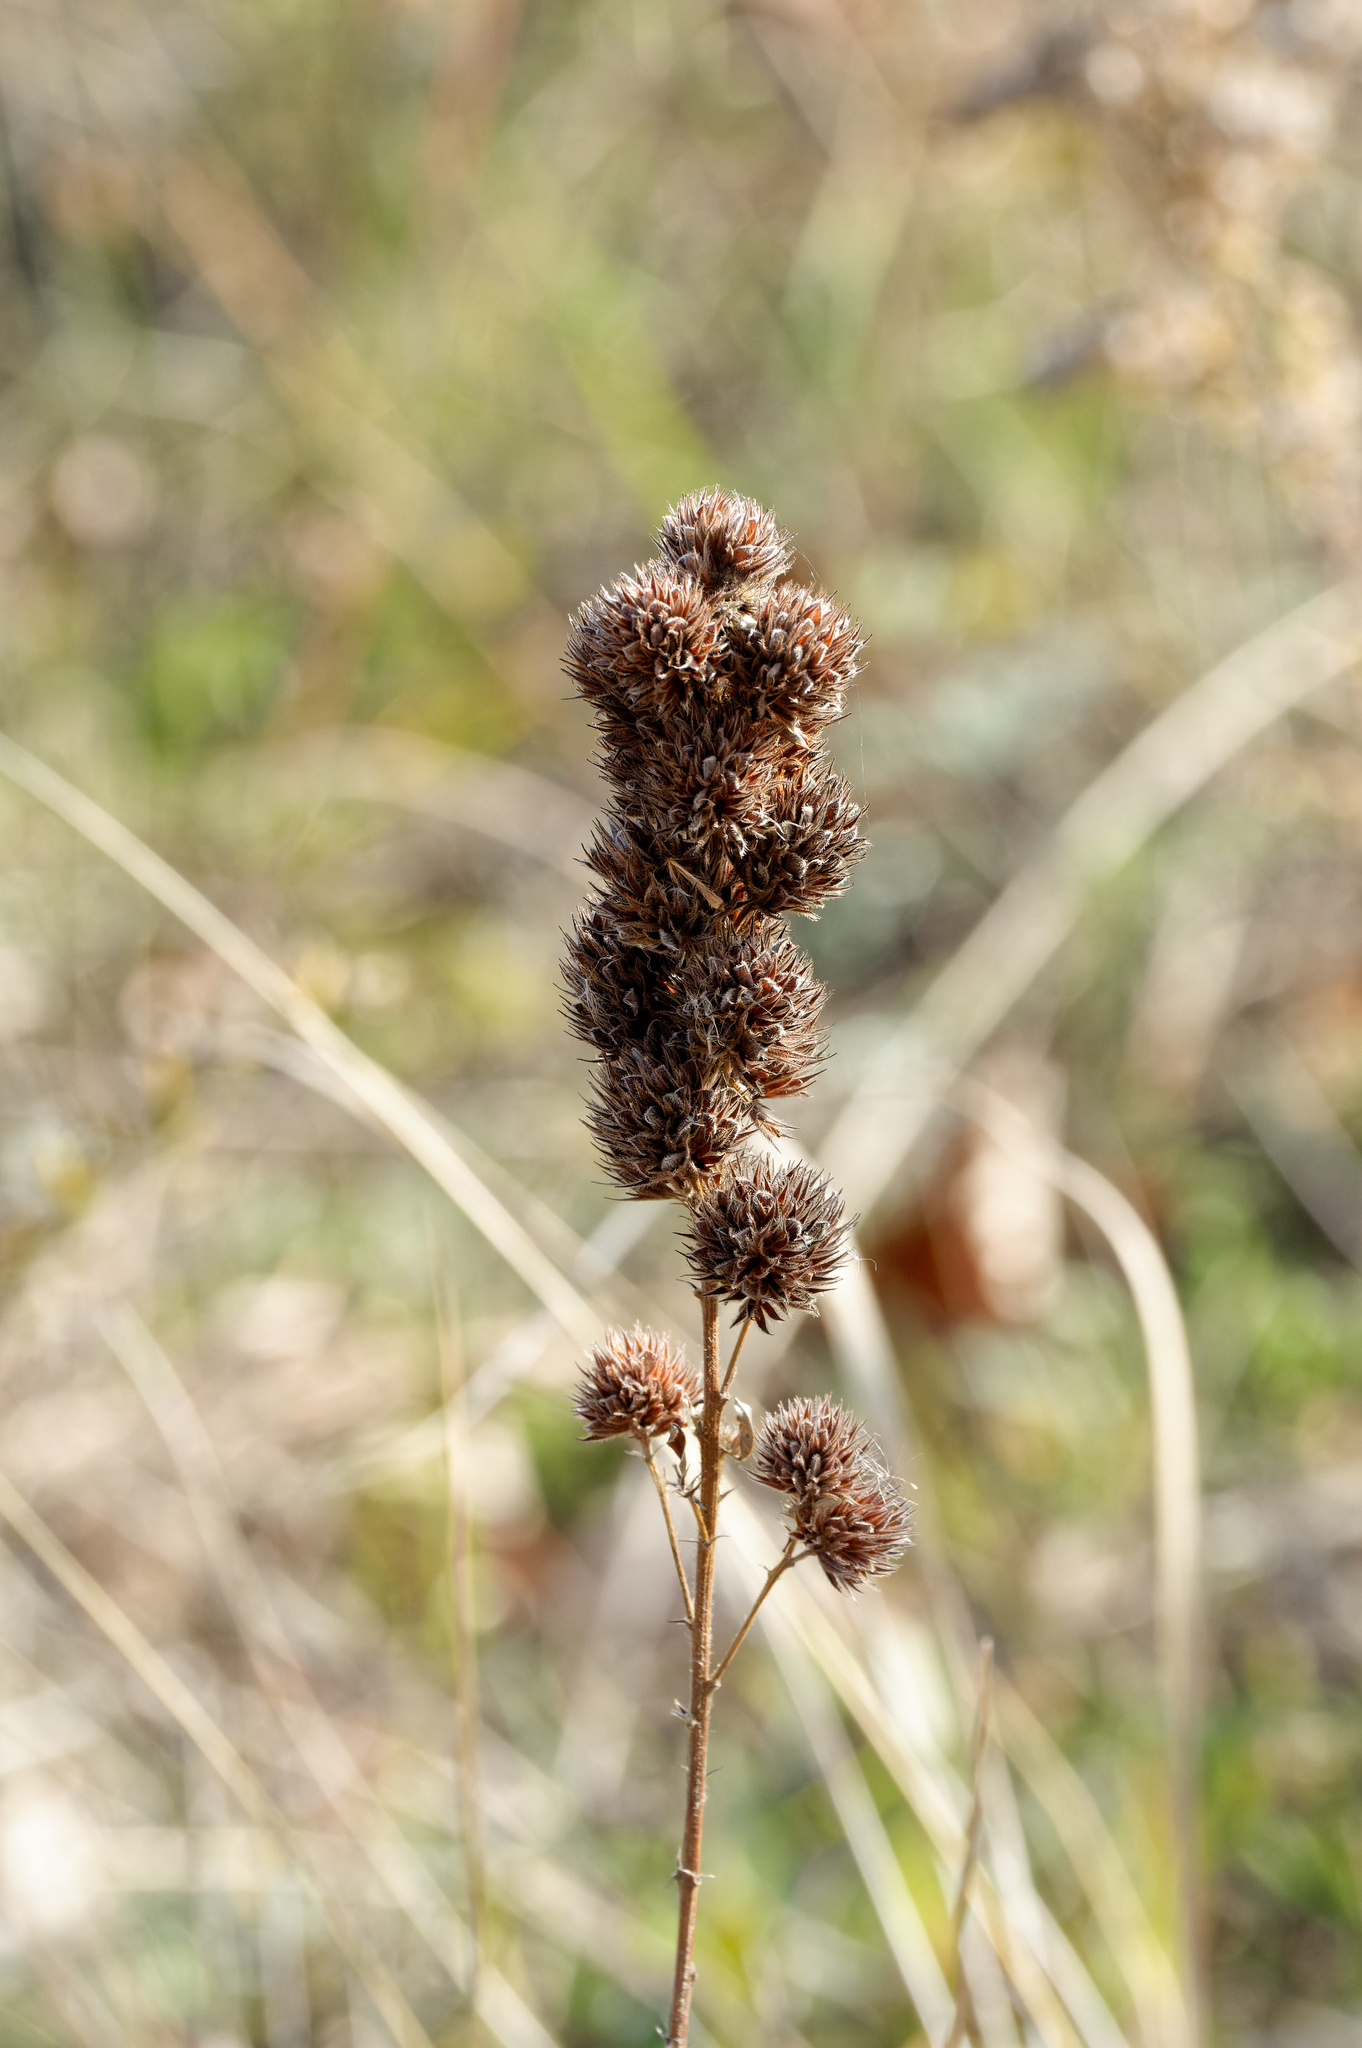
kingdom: Plantae
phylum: Tracheophyta
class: Magnoliopsida
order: Fabales
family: Fabaceae
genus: Lespedeza
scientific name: Lespedeza capitata
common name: Dusty clover
